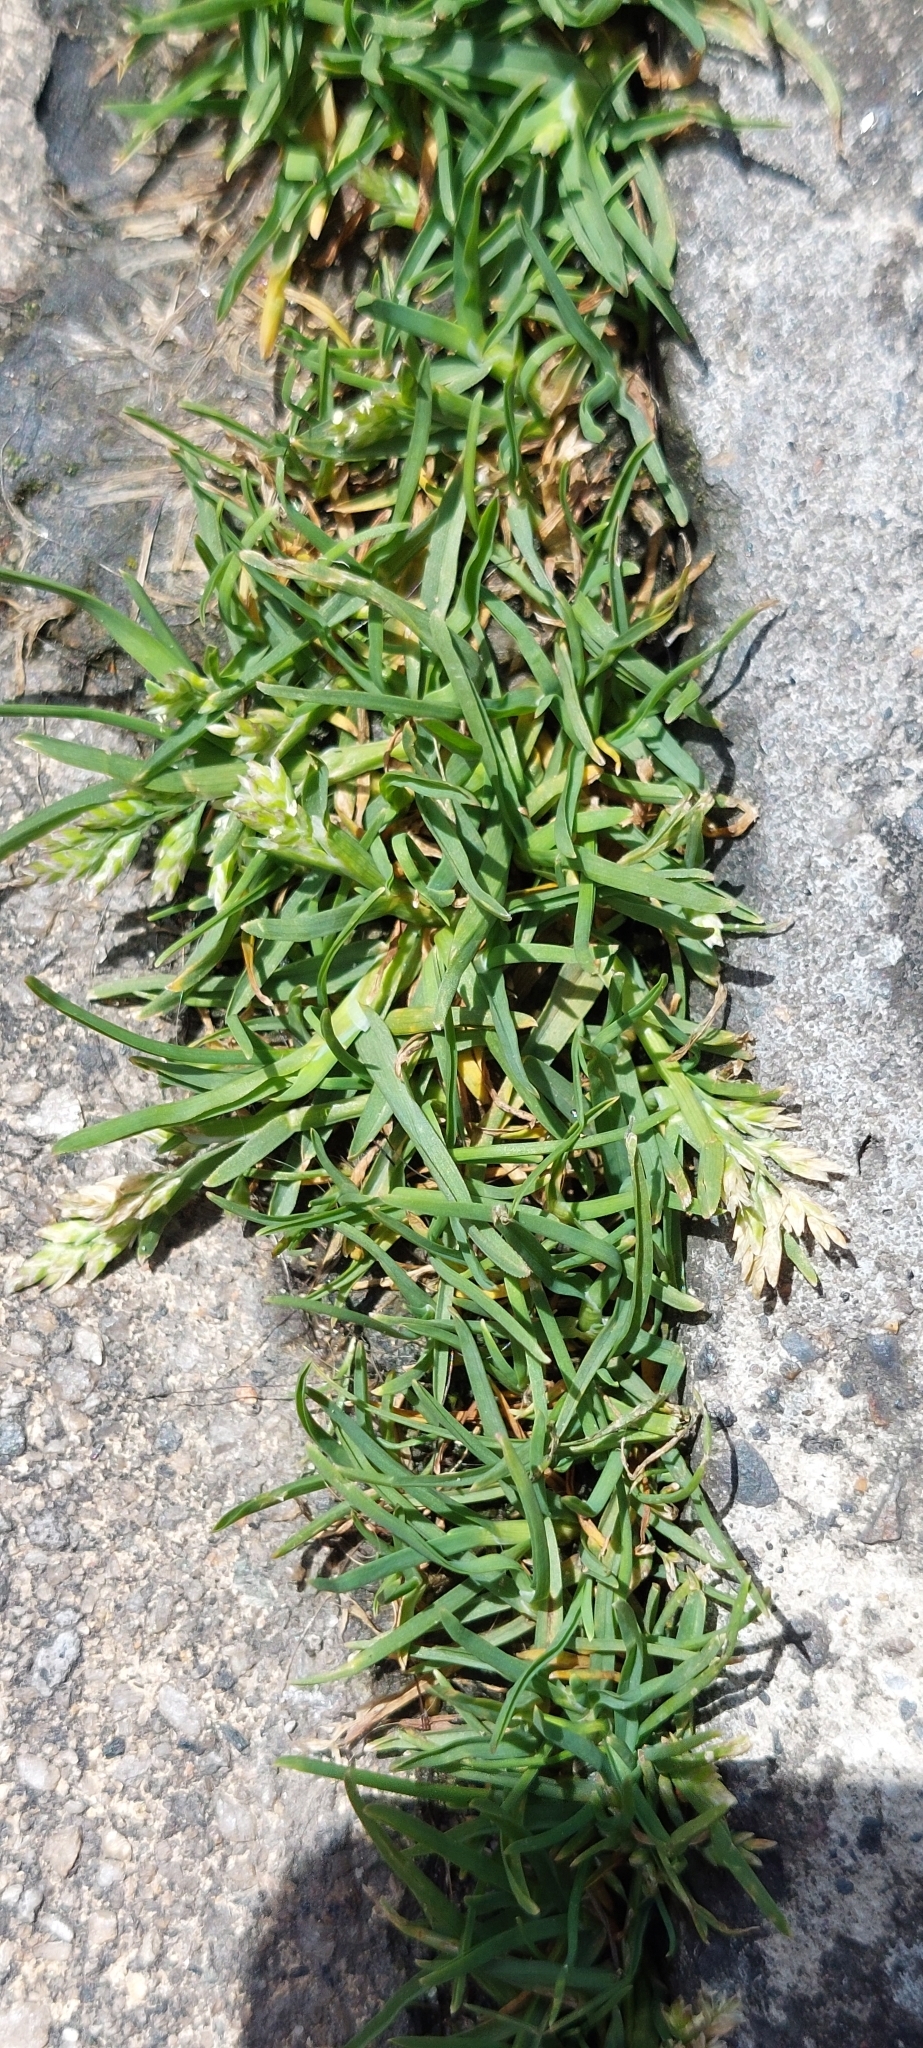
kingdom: Plantae
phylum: Tracheophyta
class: Liliopsida
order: Poales
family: Poaceae
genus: Poa
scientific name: Poa annua
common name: Annual bluegrass
